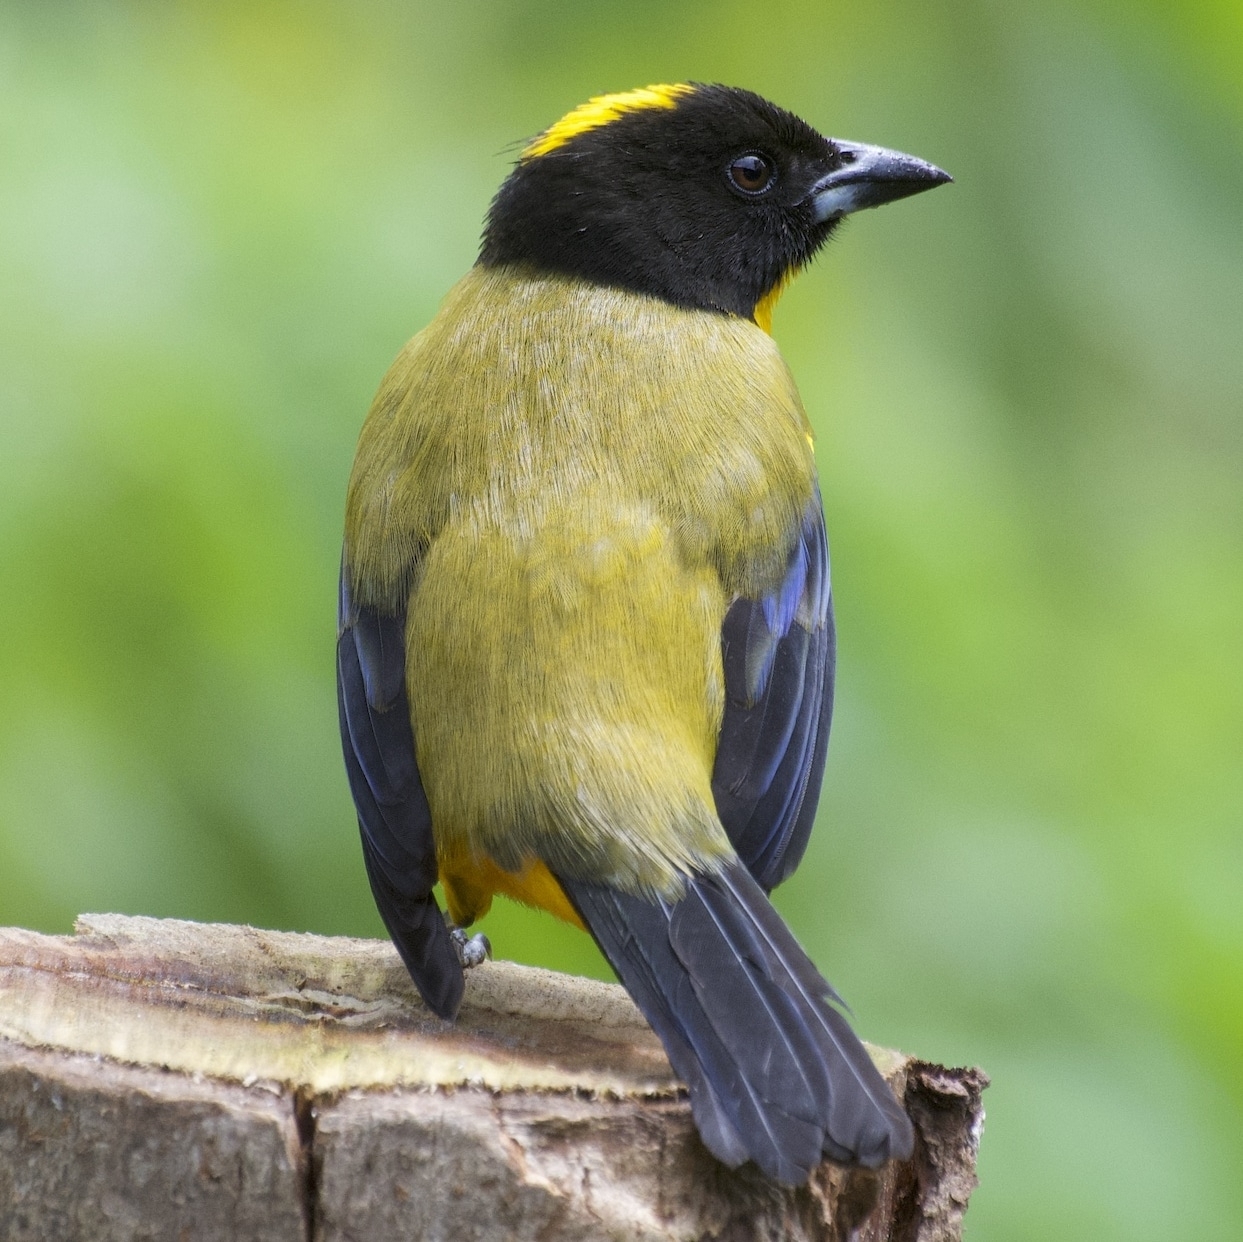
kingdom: Animalia
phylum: Chordata
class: Aves
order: Passeriformes
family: Thraupidae
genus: Anisognathus
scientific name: Anisognathus notabilis
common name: Black-chinned mountain tanager
